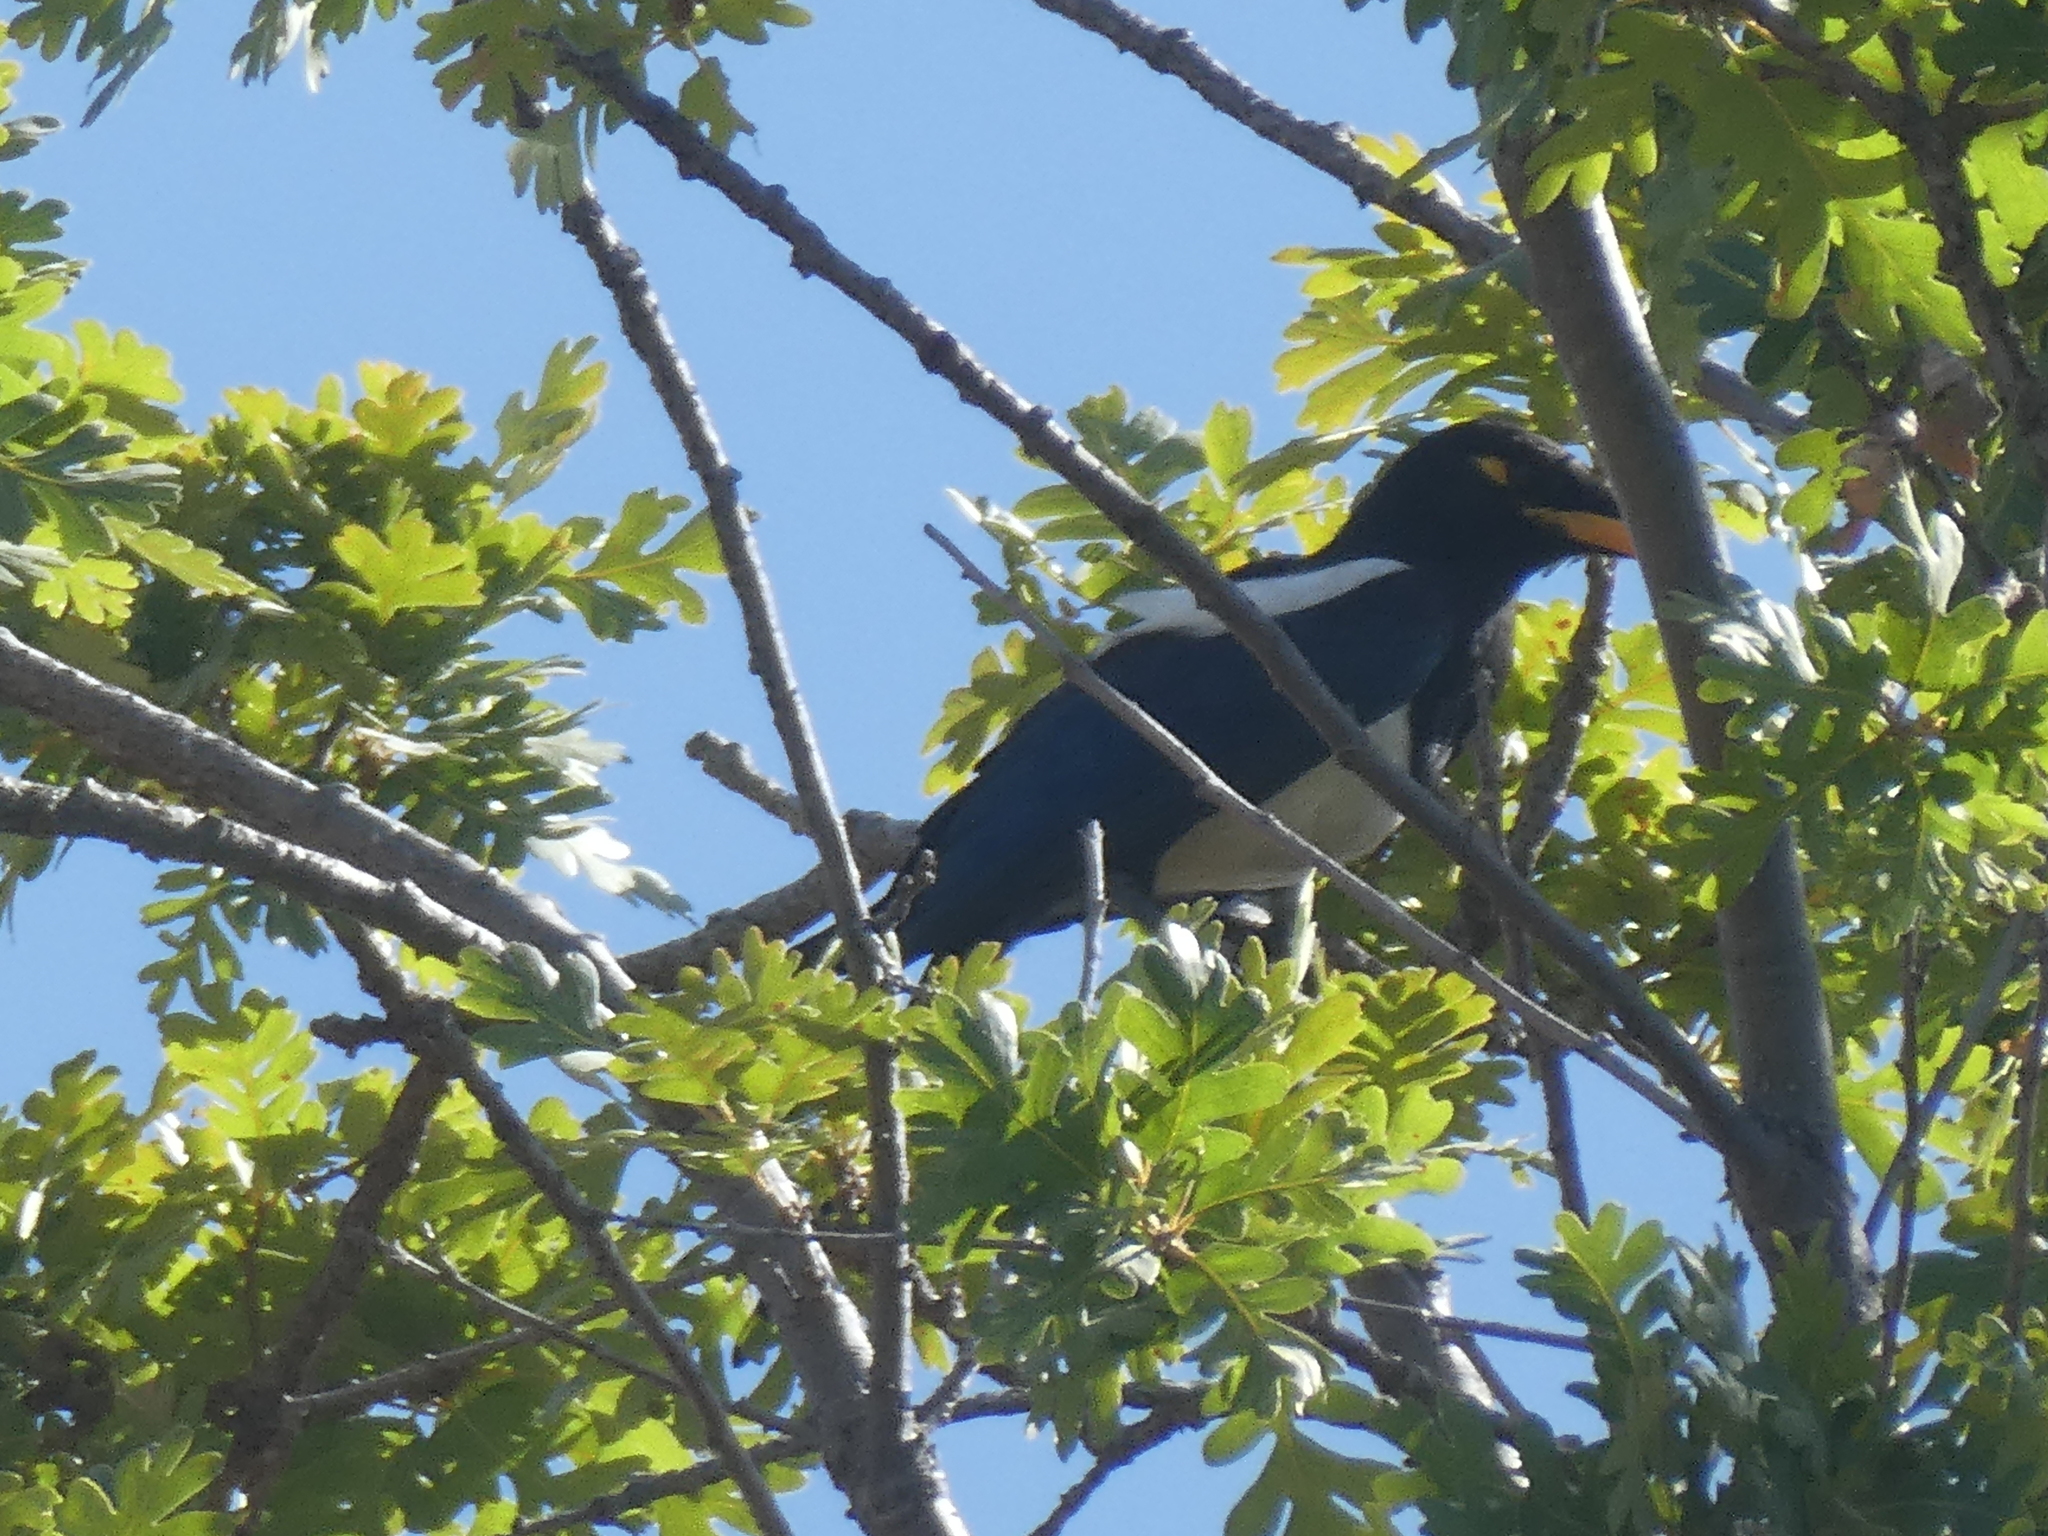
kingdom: Animalia
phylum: Chordata
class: Aves
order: Passeriformes
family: Corvidae
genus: Pica
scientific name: Pica nuttalli
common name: Yellow-billed magpie
